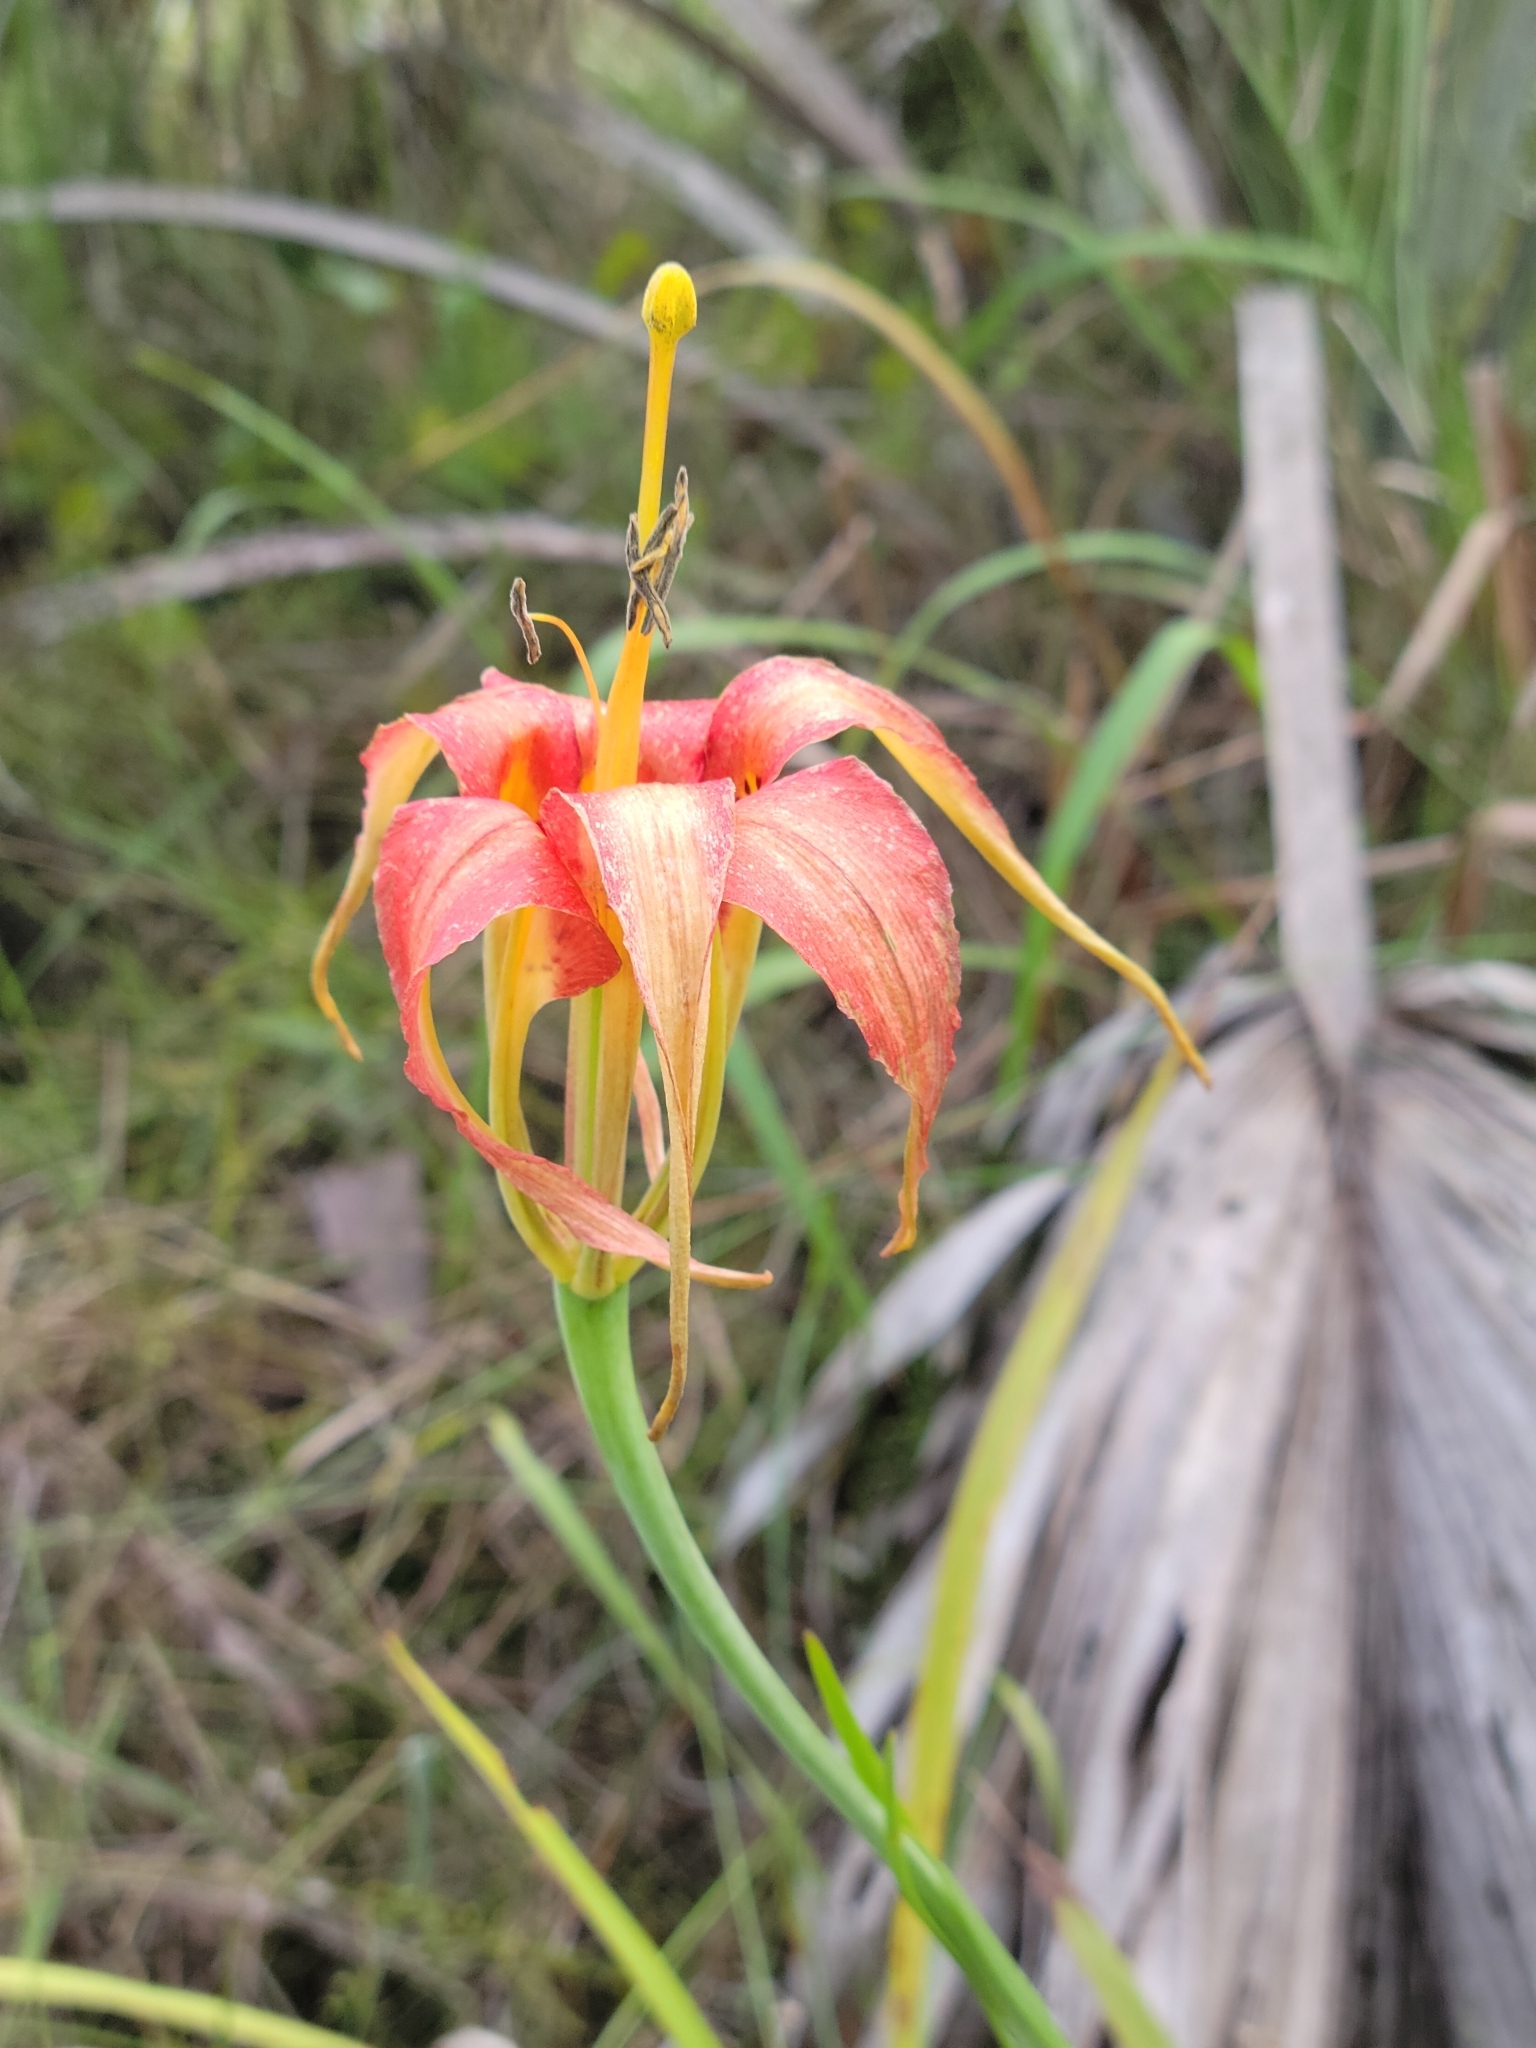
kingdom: Plantae
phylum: Tracheophyta
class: Liliopsida
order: Liliales
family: Liliaceae
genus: Lilium
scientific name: Lilium catesbaei
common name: Catesby's lily
